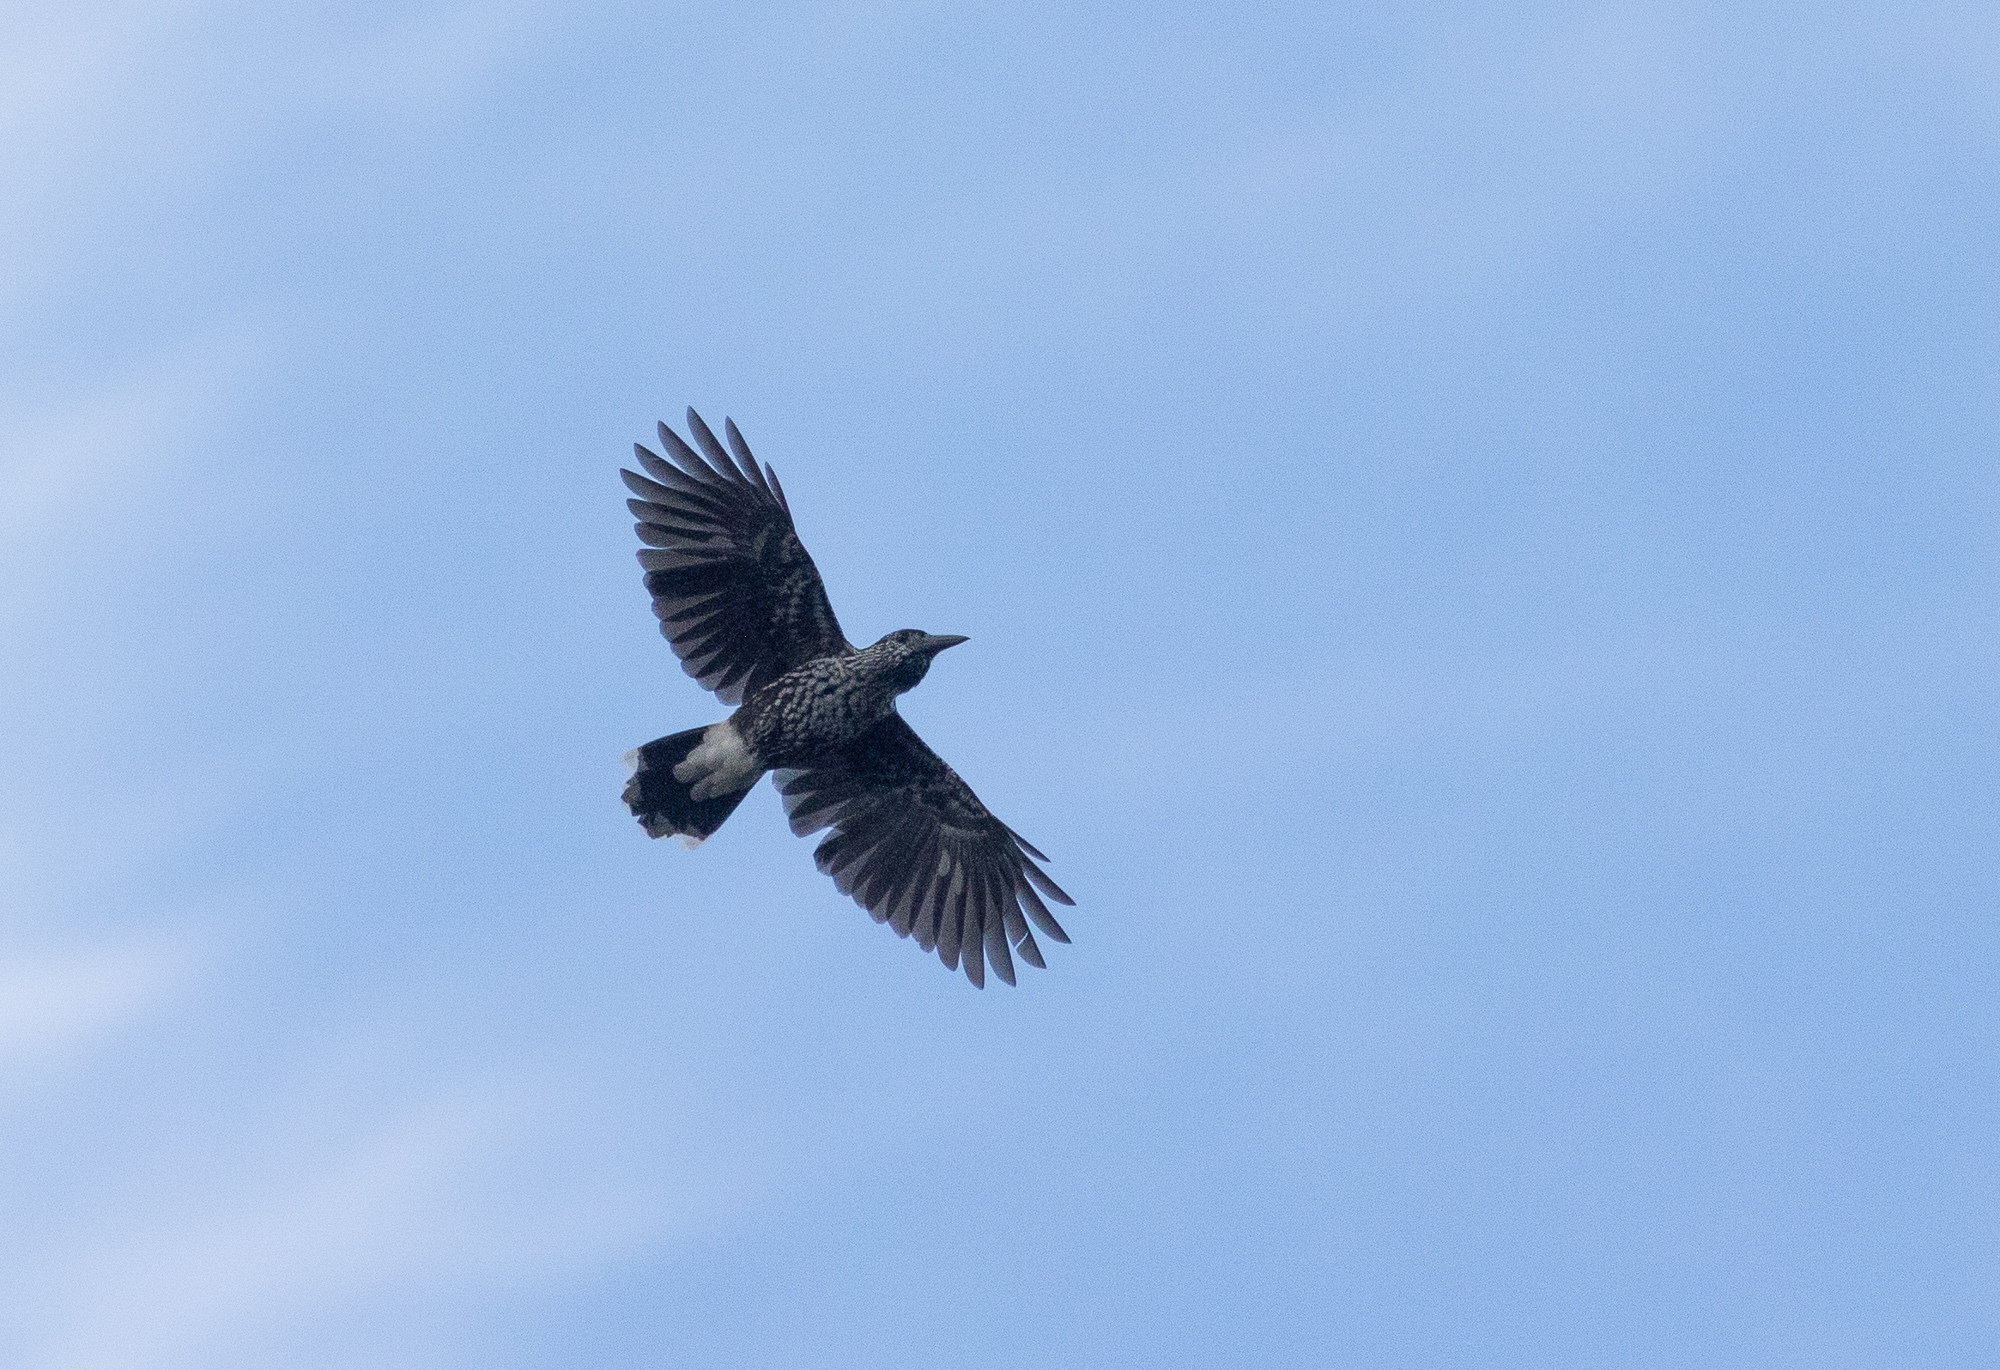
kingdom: Animalia
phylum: Chordata
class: Aves
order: Passeriformes
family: Corvidae
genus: Nucifraga
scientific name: Nucifraga caryocatactes
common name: Spotted nutcracker
